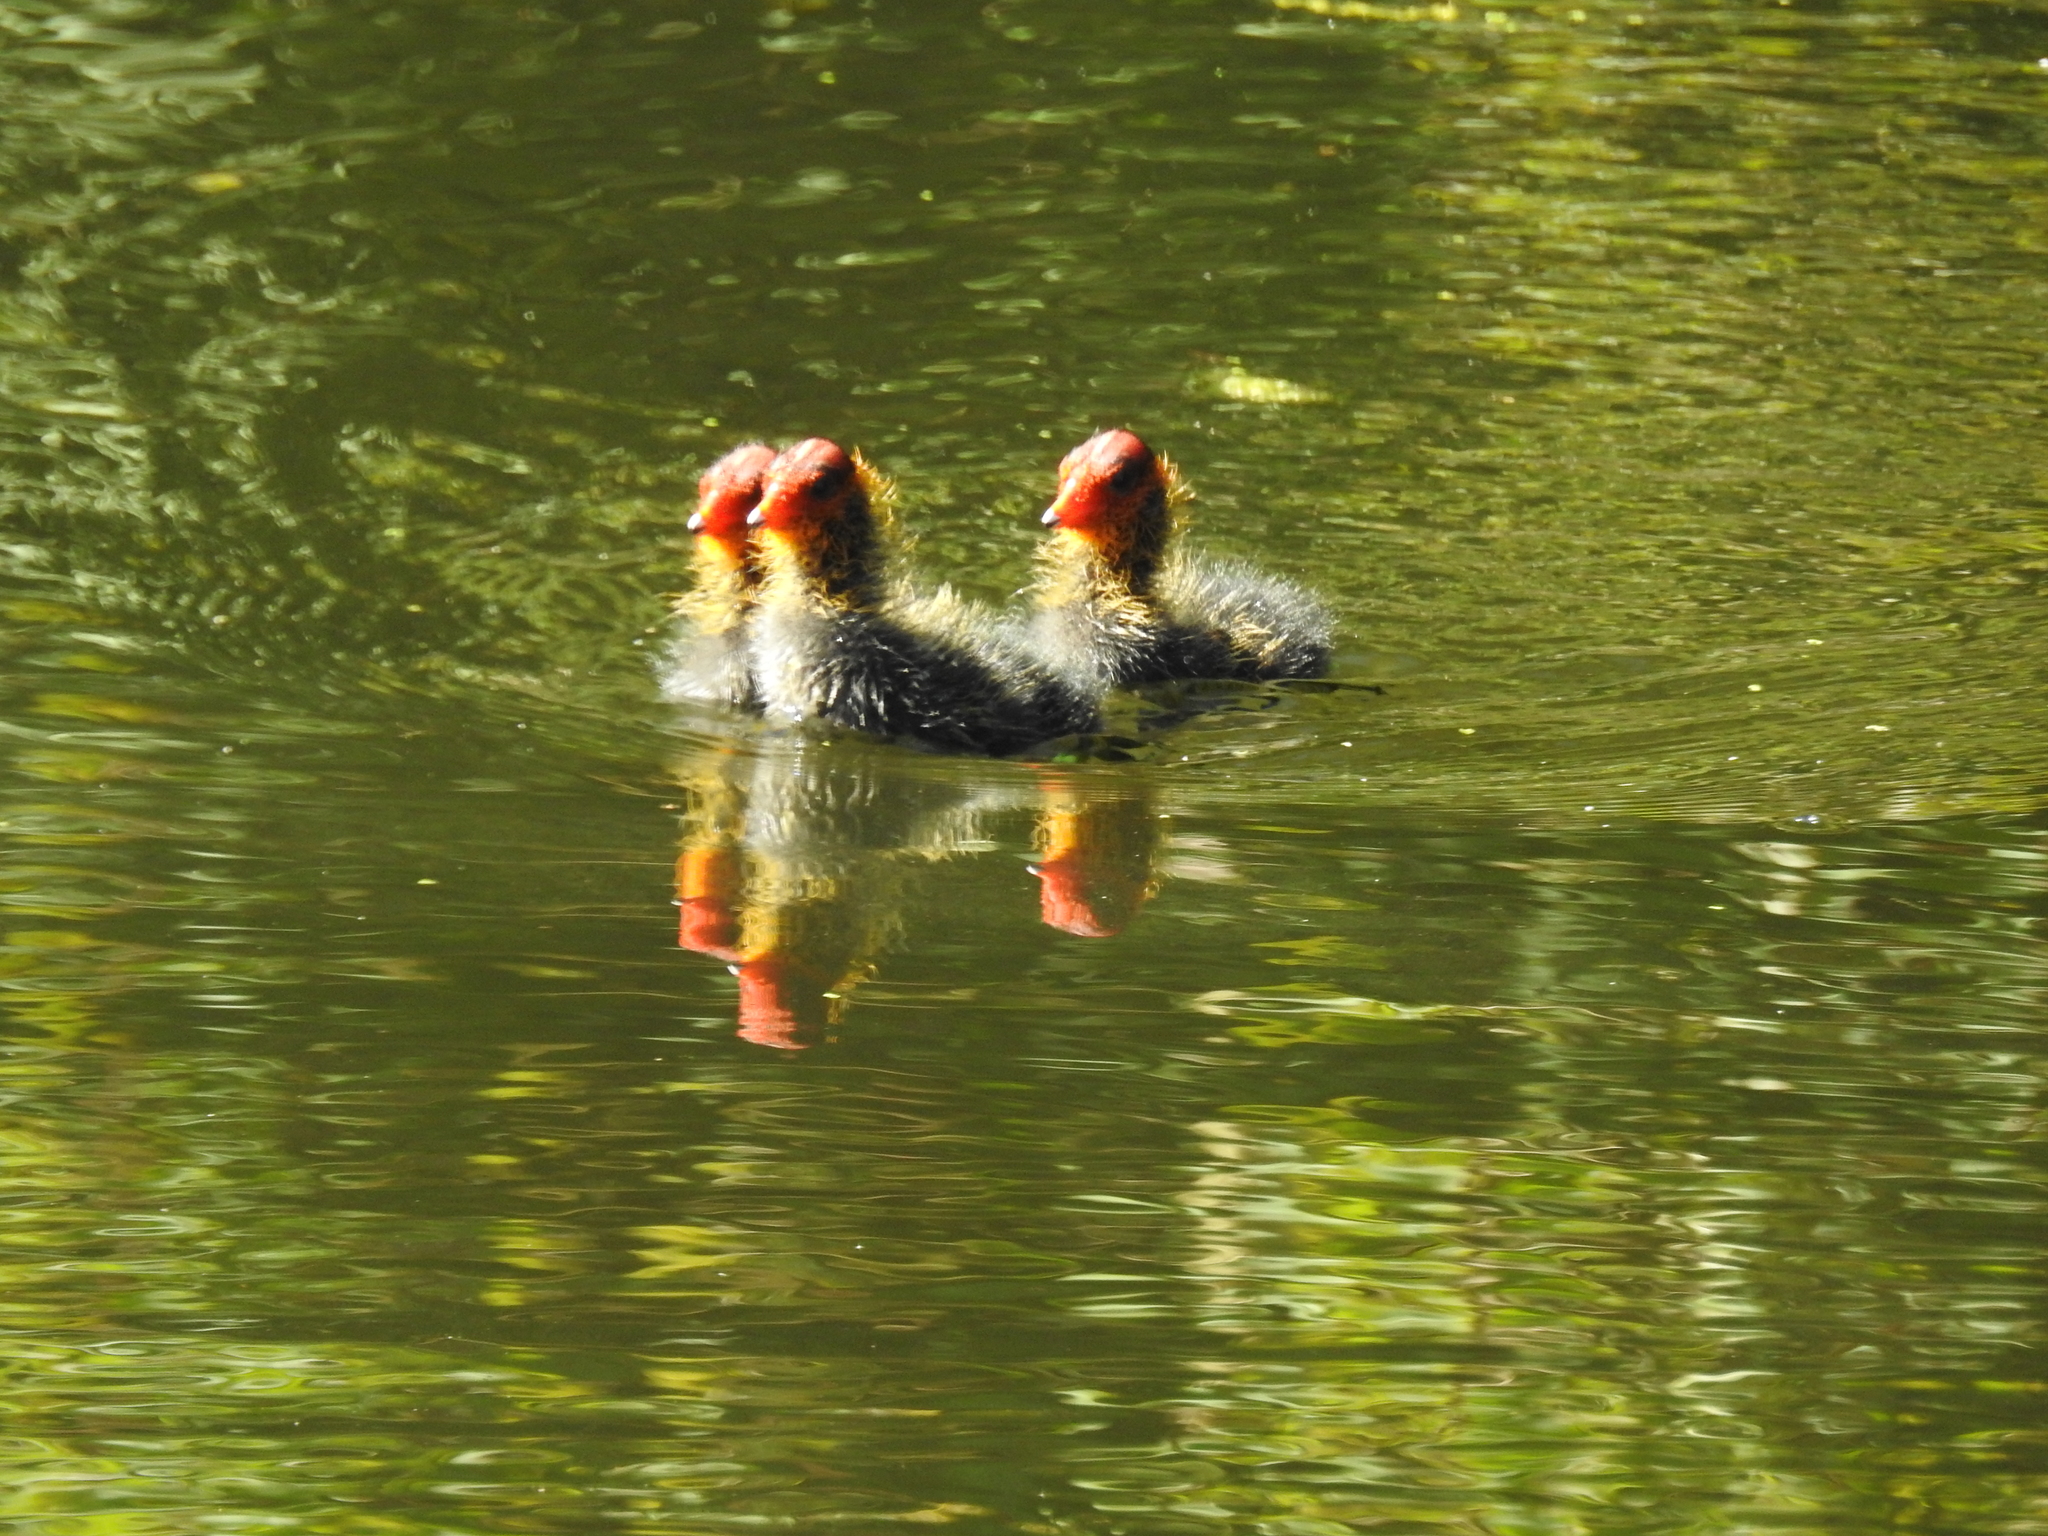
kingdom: Animalia
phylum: Chordata
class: Aves
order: Gruiformes
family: Rallidae
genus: Fulica
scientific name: Fulica atra
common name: Eurasian coot
